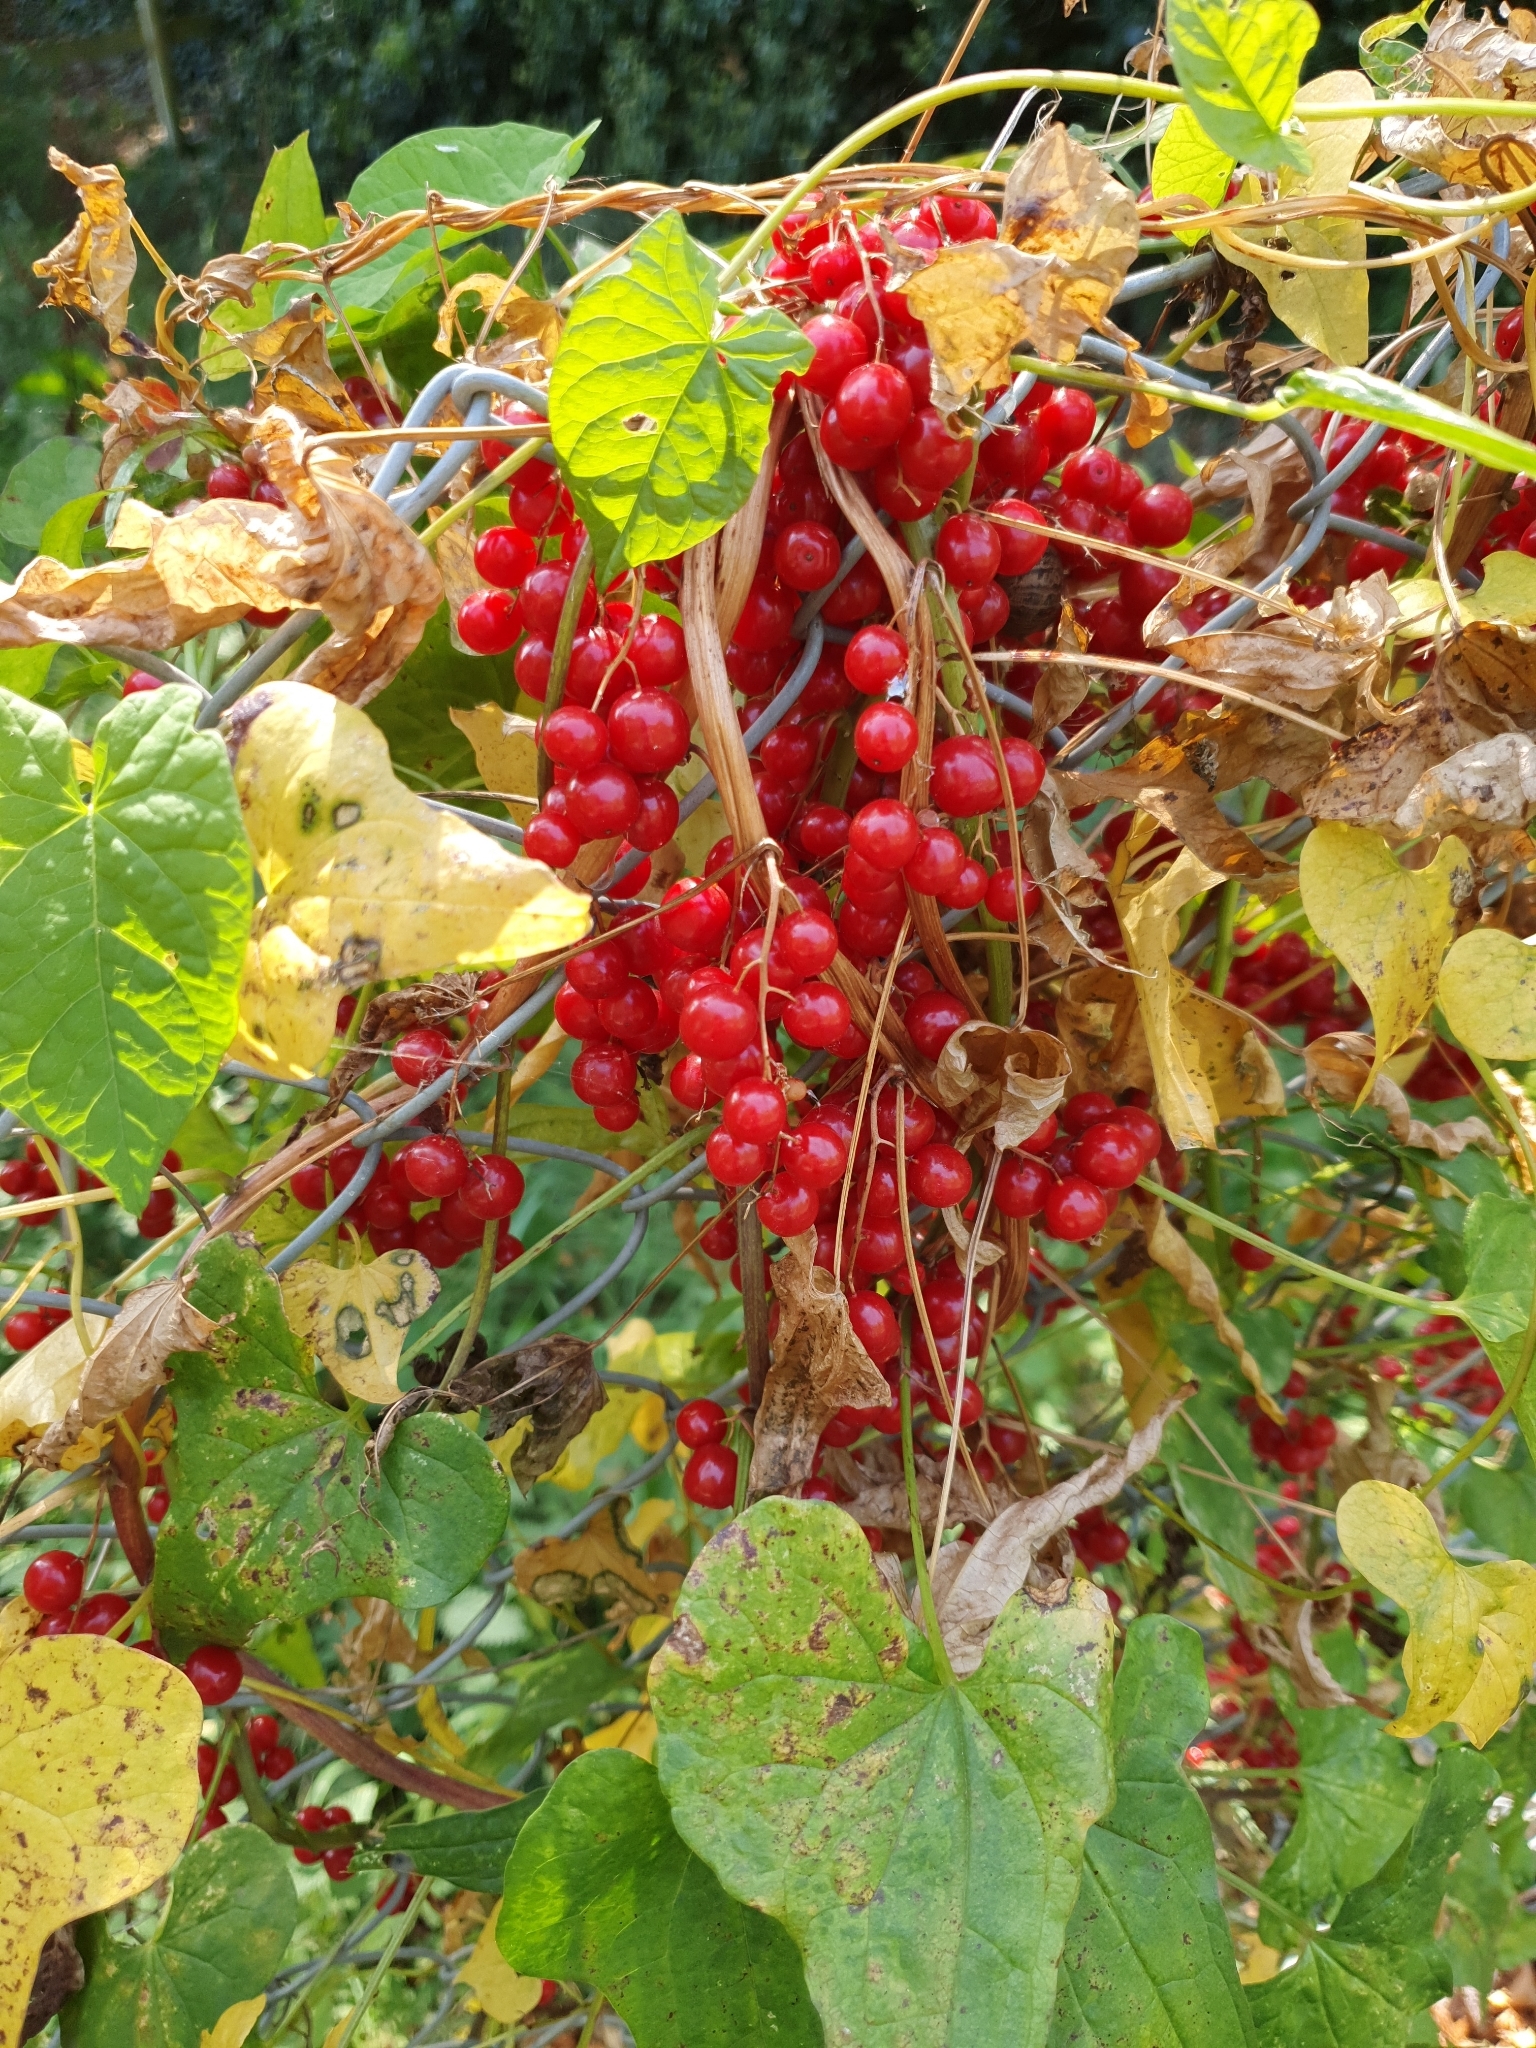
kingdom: Plantae
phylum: Tracheophyta
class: Liliopsida
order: Dioscoreales
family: Dioscoreaceae
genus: Dioscorea
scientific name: Dioscorea communis
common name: Black-bindweed
